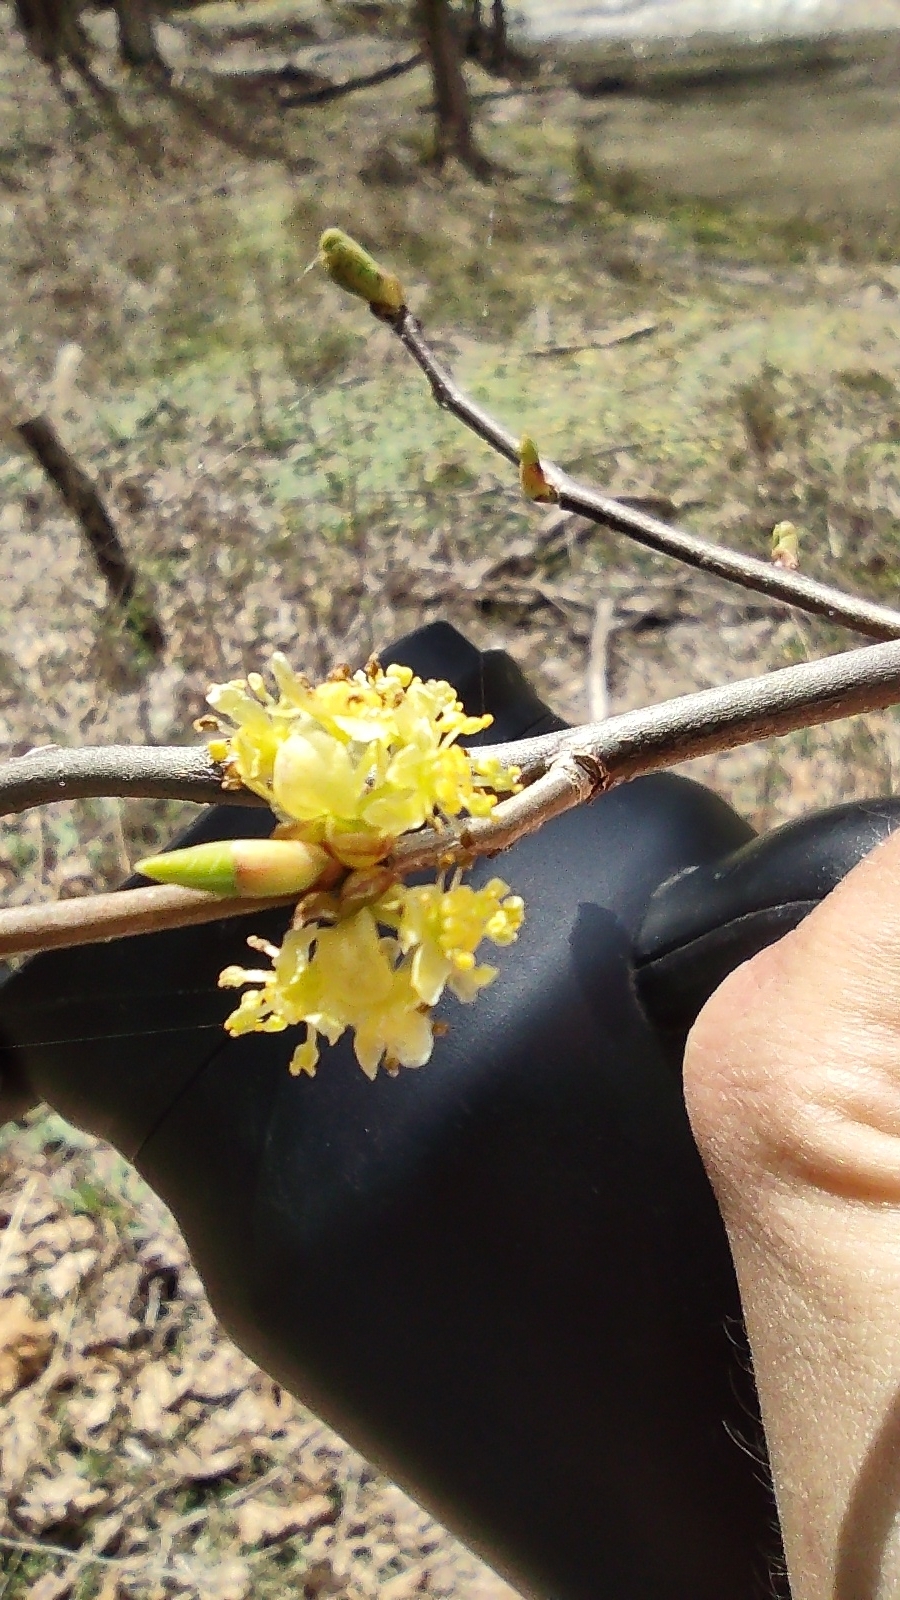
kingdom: Plantae
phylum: Tracheophyta
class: Magnoliopsida
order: Laurales
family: Lauraceae
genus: Lindera
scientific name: Lindera benzoin
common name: Spicebush
